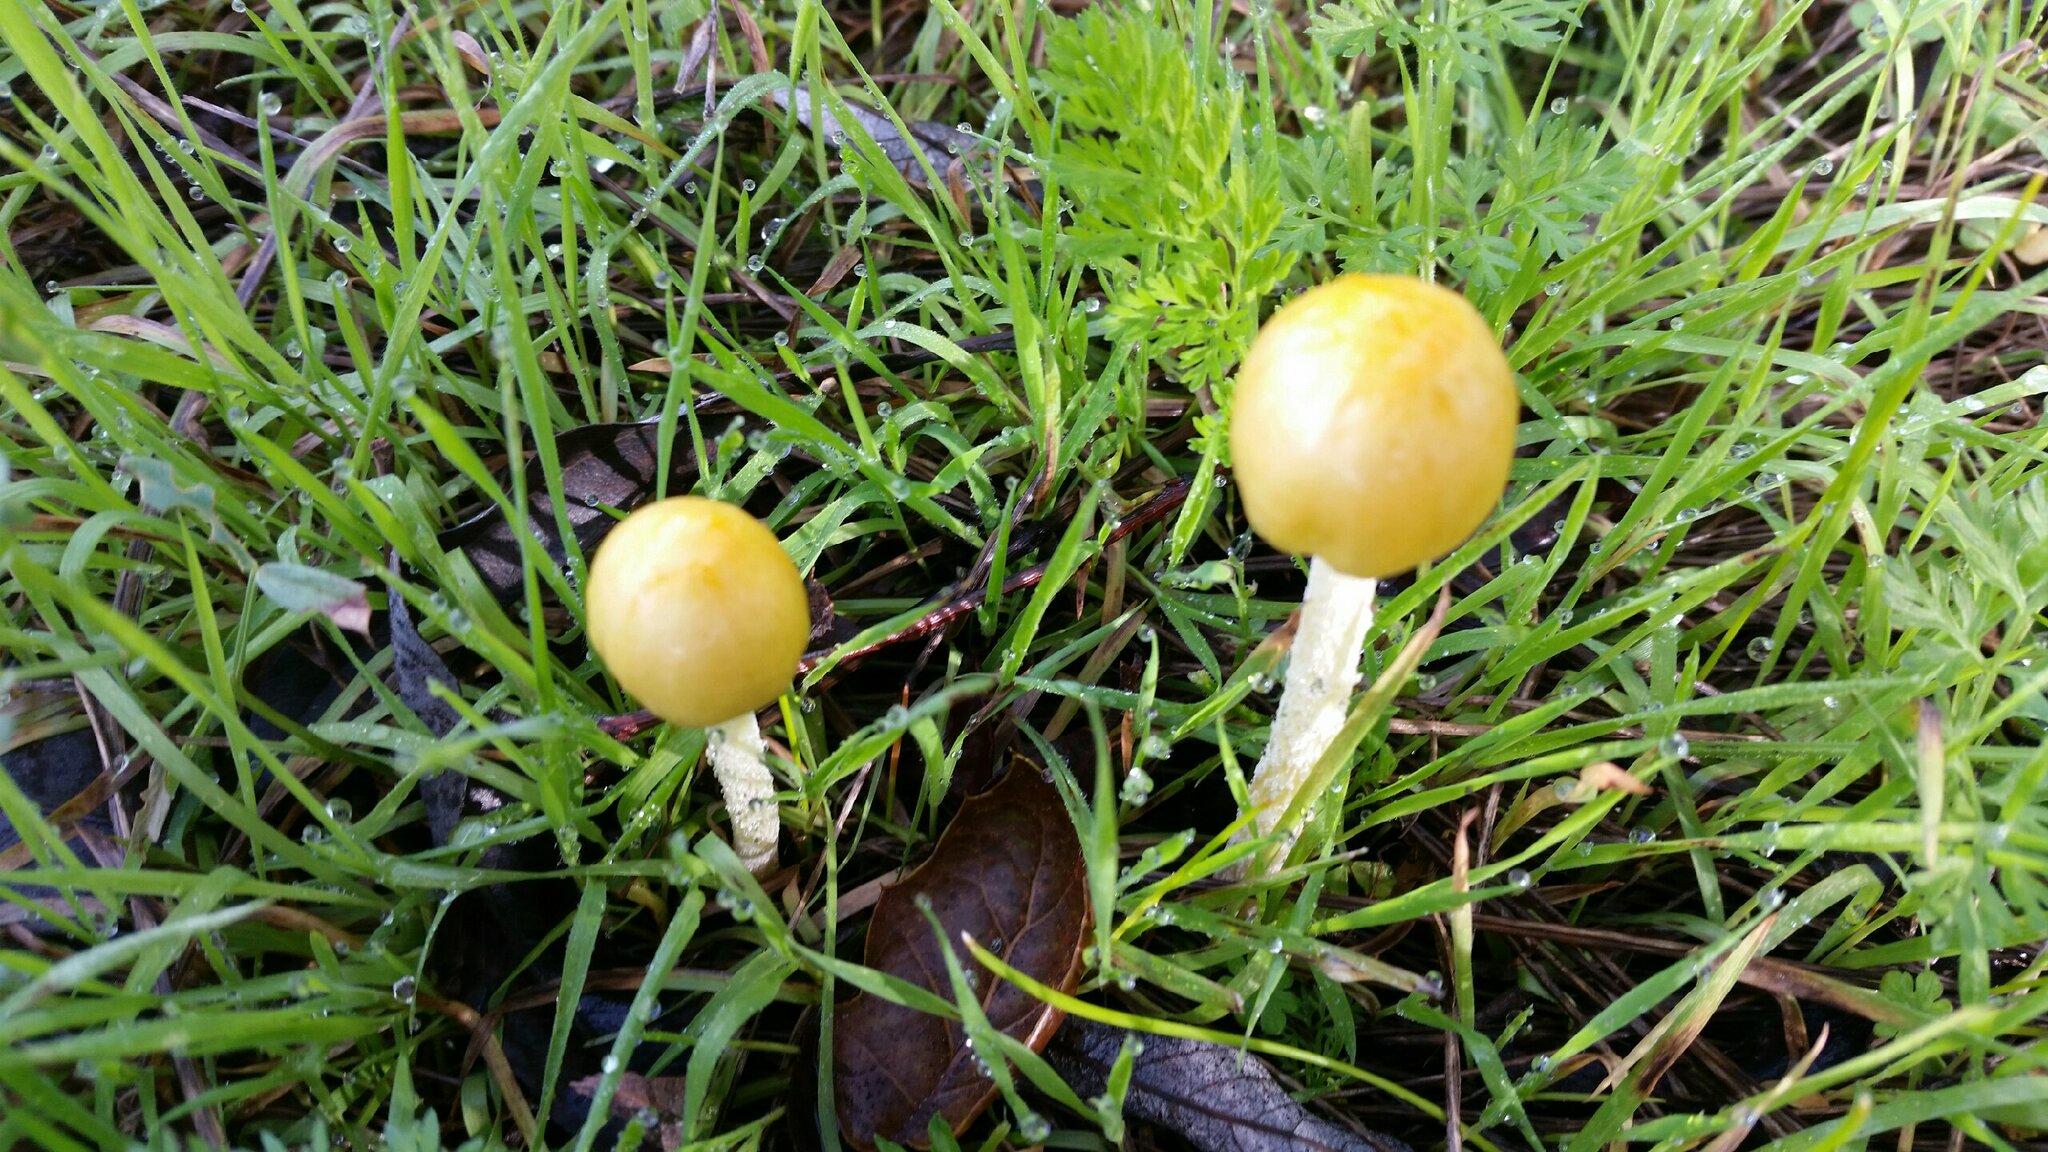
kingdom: Fungi
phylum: Basidiomycota
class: Agaricomycetes
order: Agaricales
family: Bolbitiaceae
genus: Bolbitius
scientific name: Bolbitius titubans
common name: Yellow fieldcap
